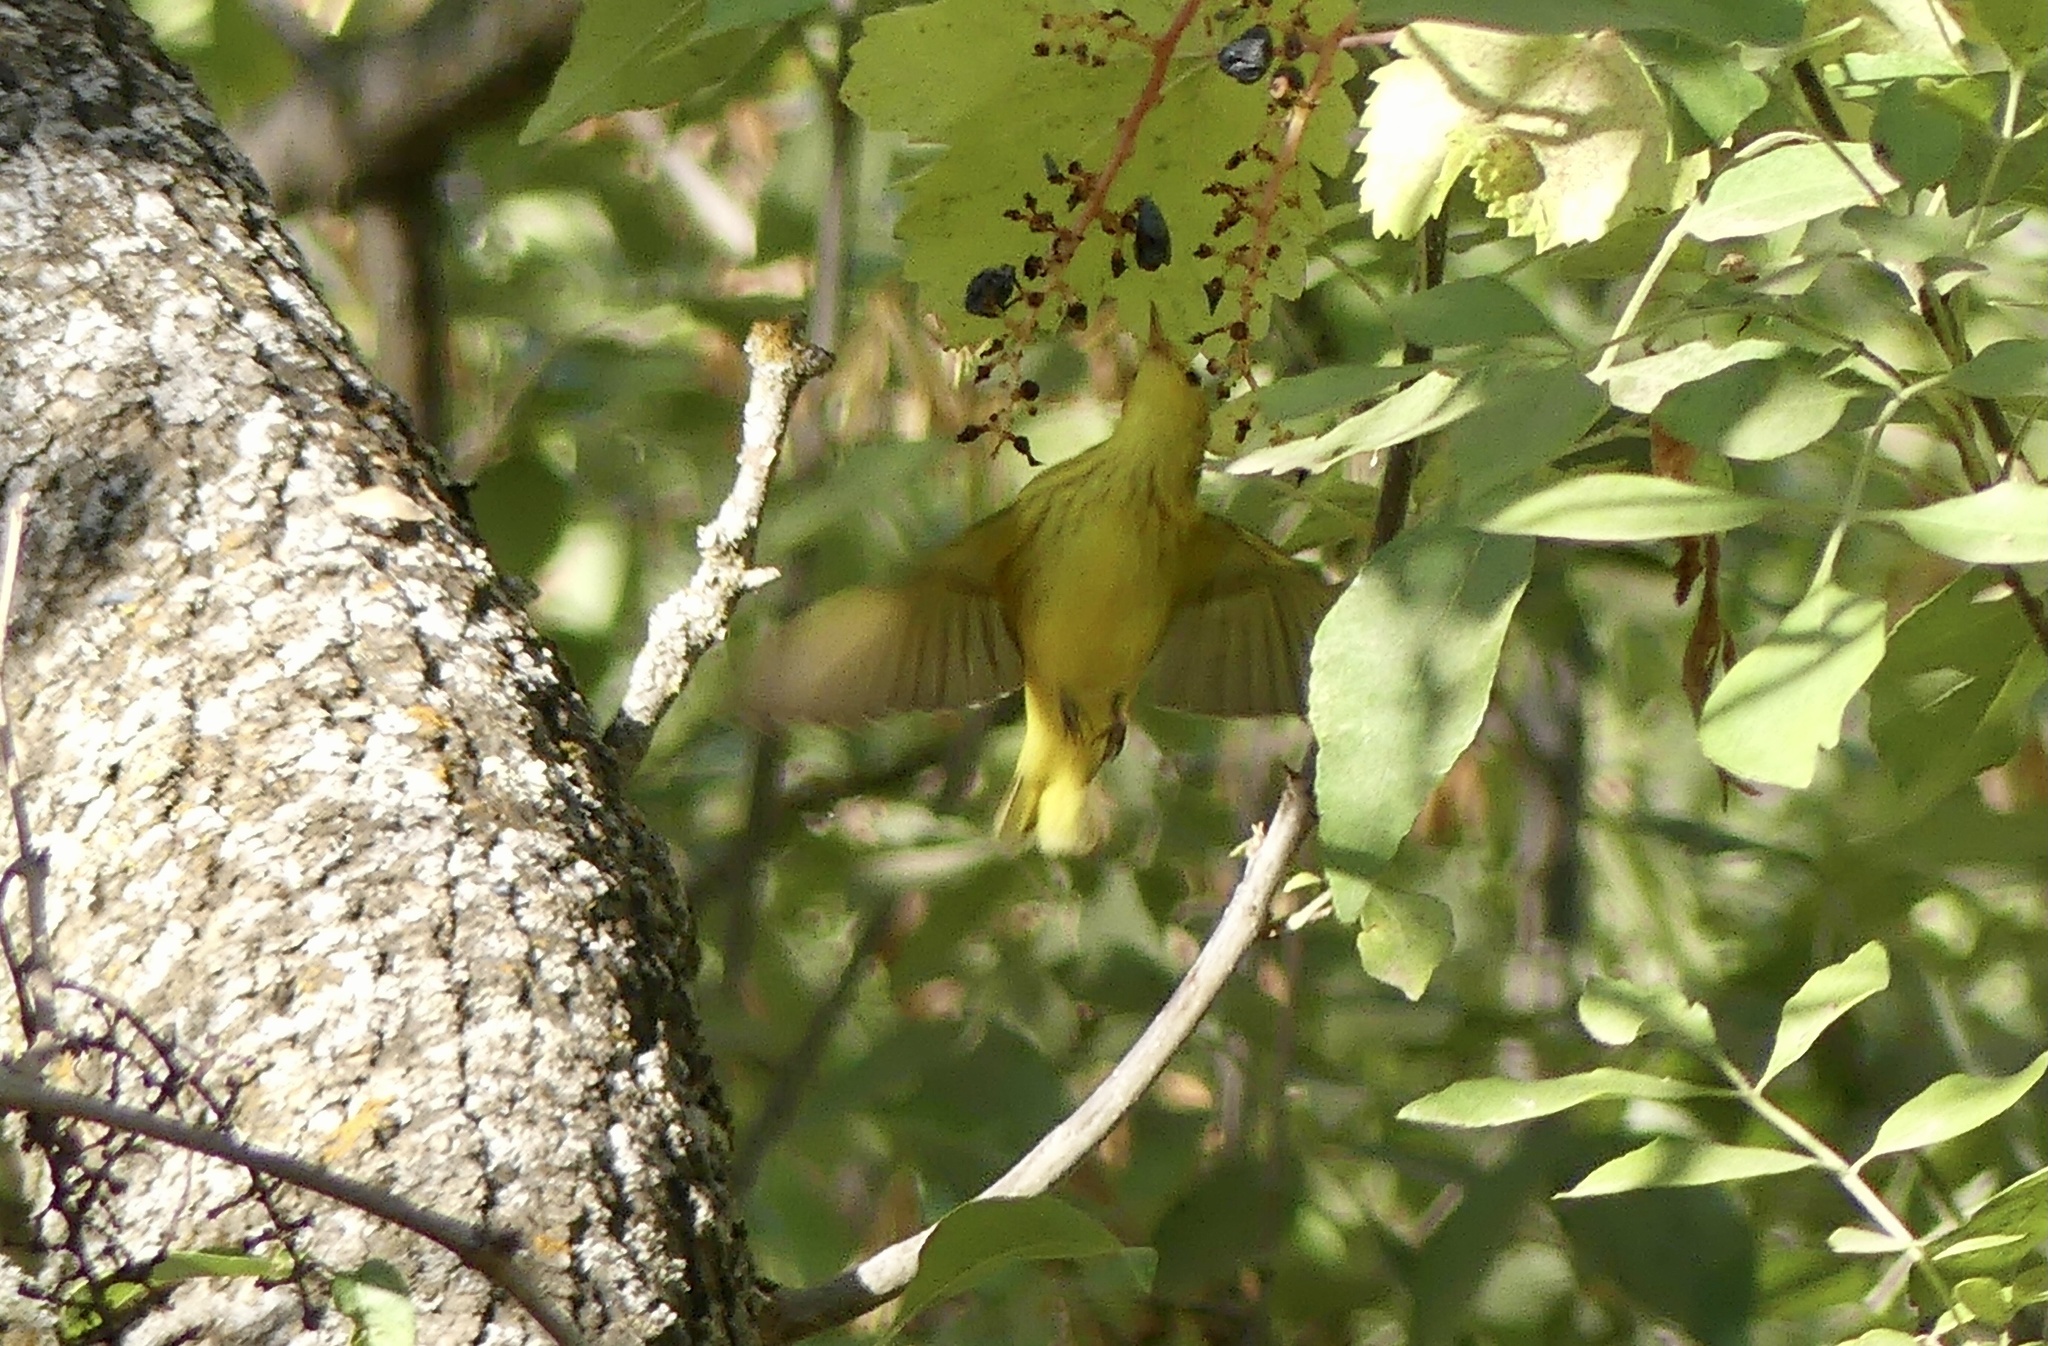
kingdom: Animalia
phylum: Chordata
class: Aves
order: Passeriformes
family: Parulidae
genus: Setophaga
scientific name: Setophaga petechia
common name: Yellow warbler
